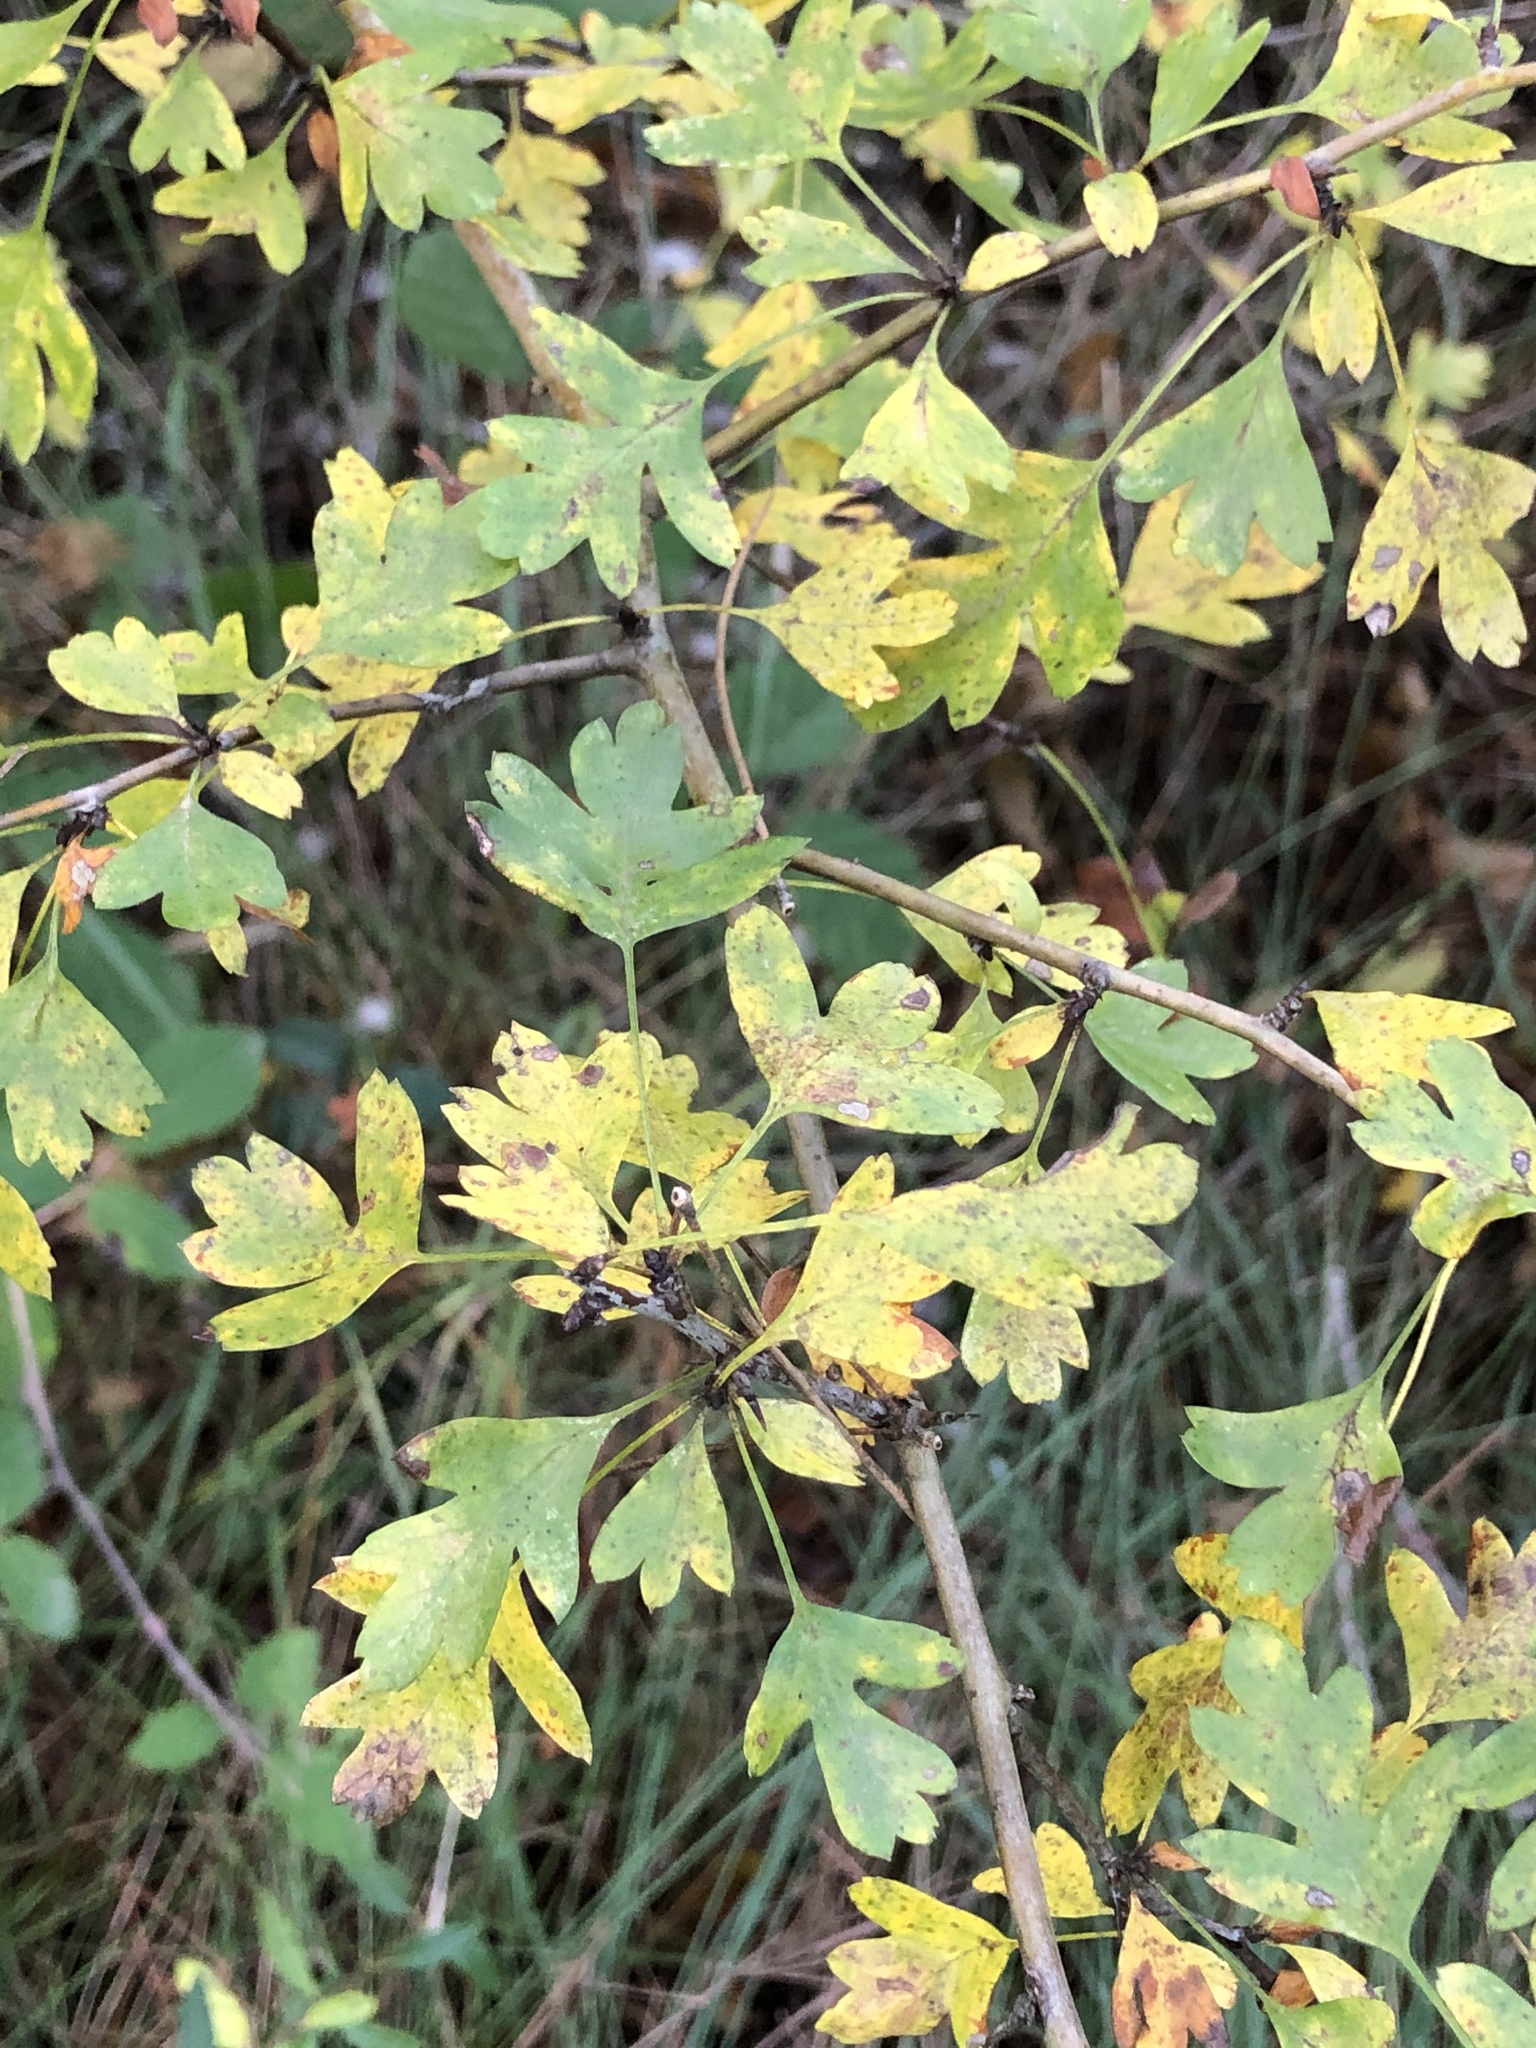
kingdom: Plantae
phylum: Tracheophyta
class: Magnoliopsida
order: Rosales
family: Rosaceae
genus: Crataegus
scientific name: Crataegus monogyna
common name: Hawthorn
